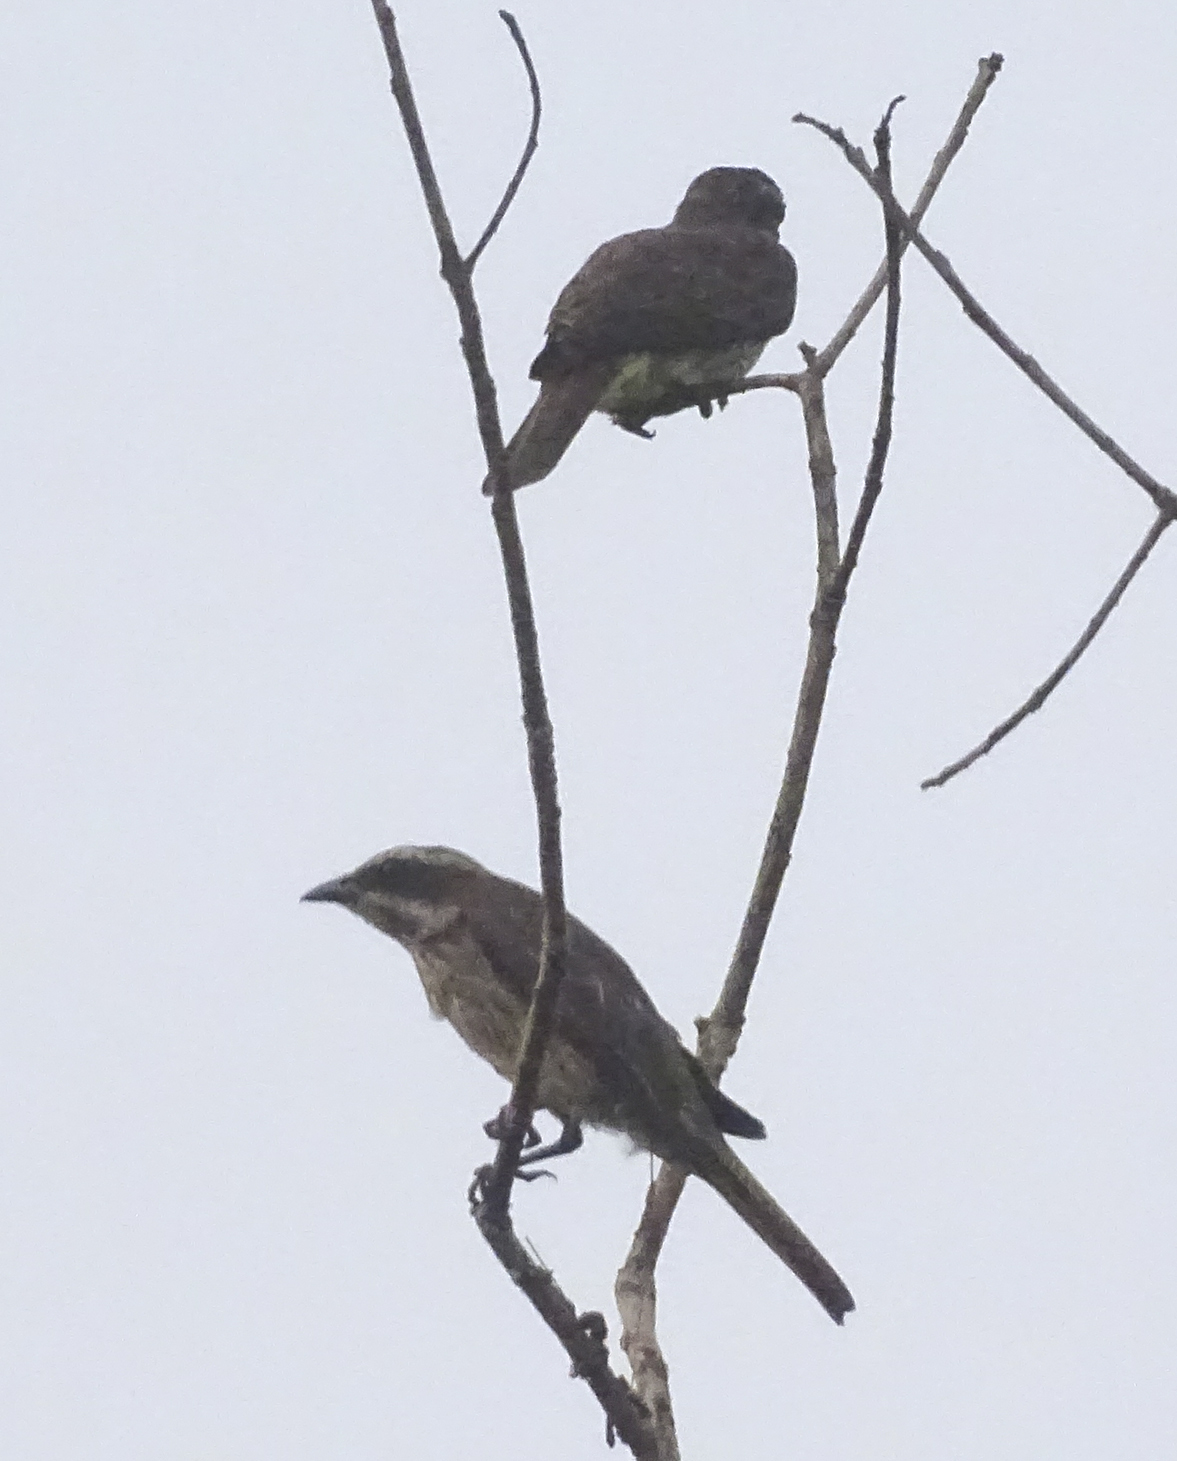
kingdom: Animalia
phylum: Chordata
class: Aves
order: Passeriformes
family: Tyrannidae
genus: Legatus
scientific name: Legatus leucophaius
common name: Piratic flycatcher
